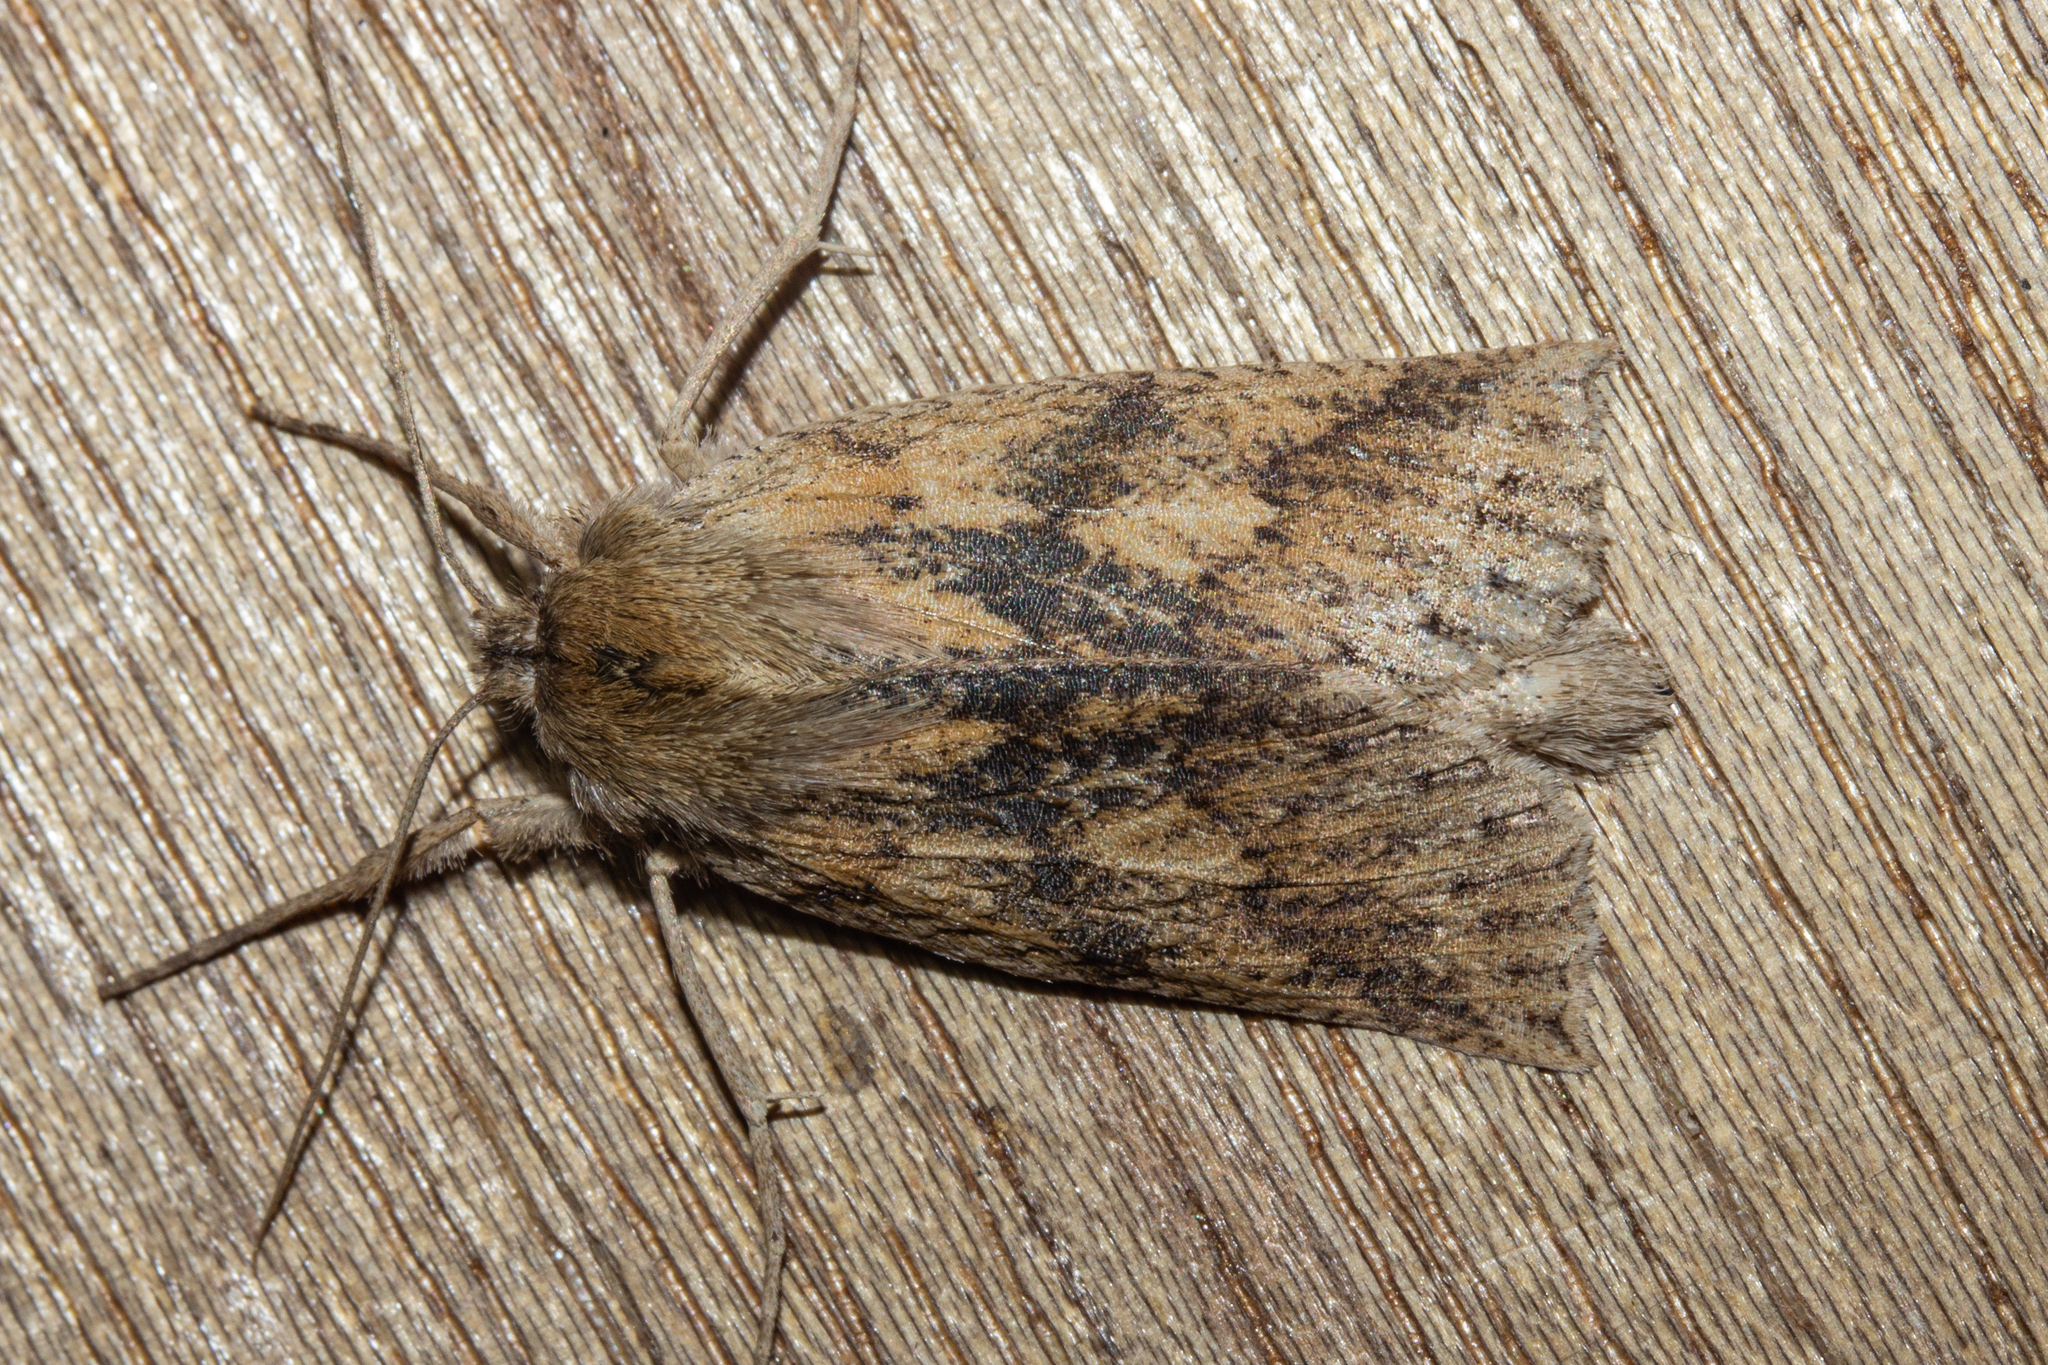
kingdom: Animalia
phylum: Arthropoda
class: Insecta
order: Lepidoptera
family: Geometridae
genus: Declana
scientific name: Declana leptomera
